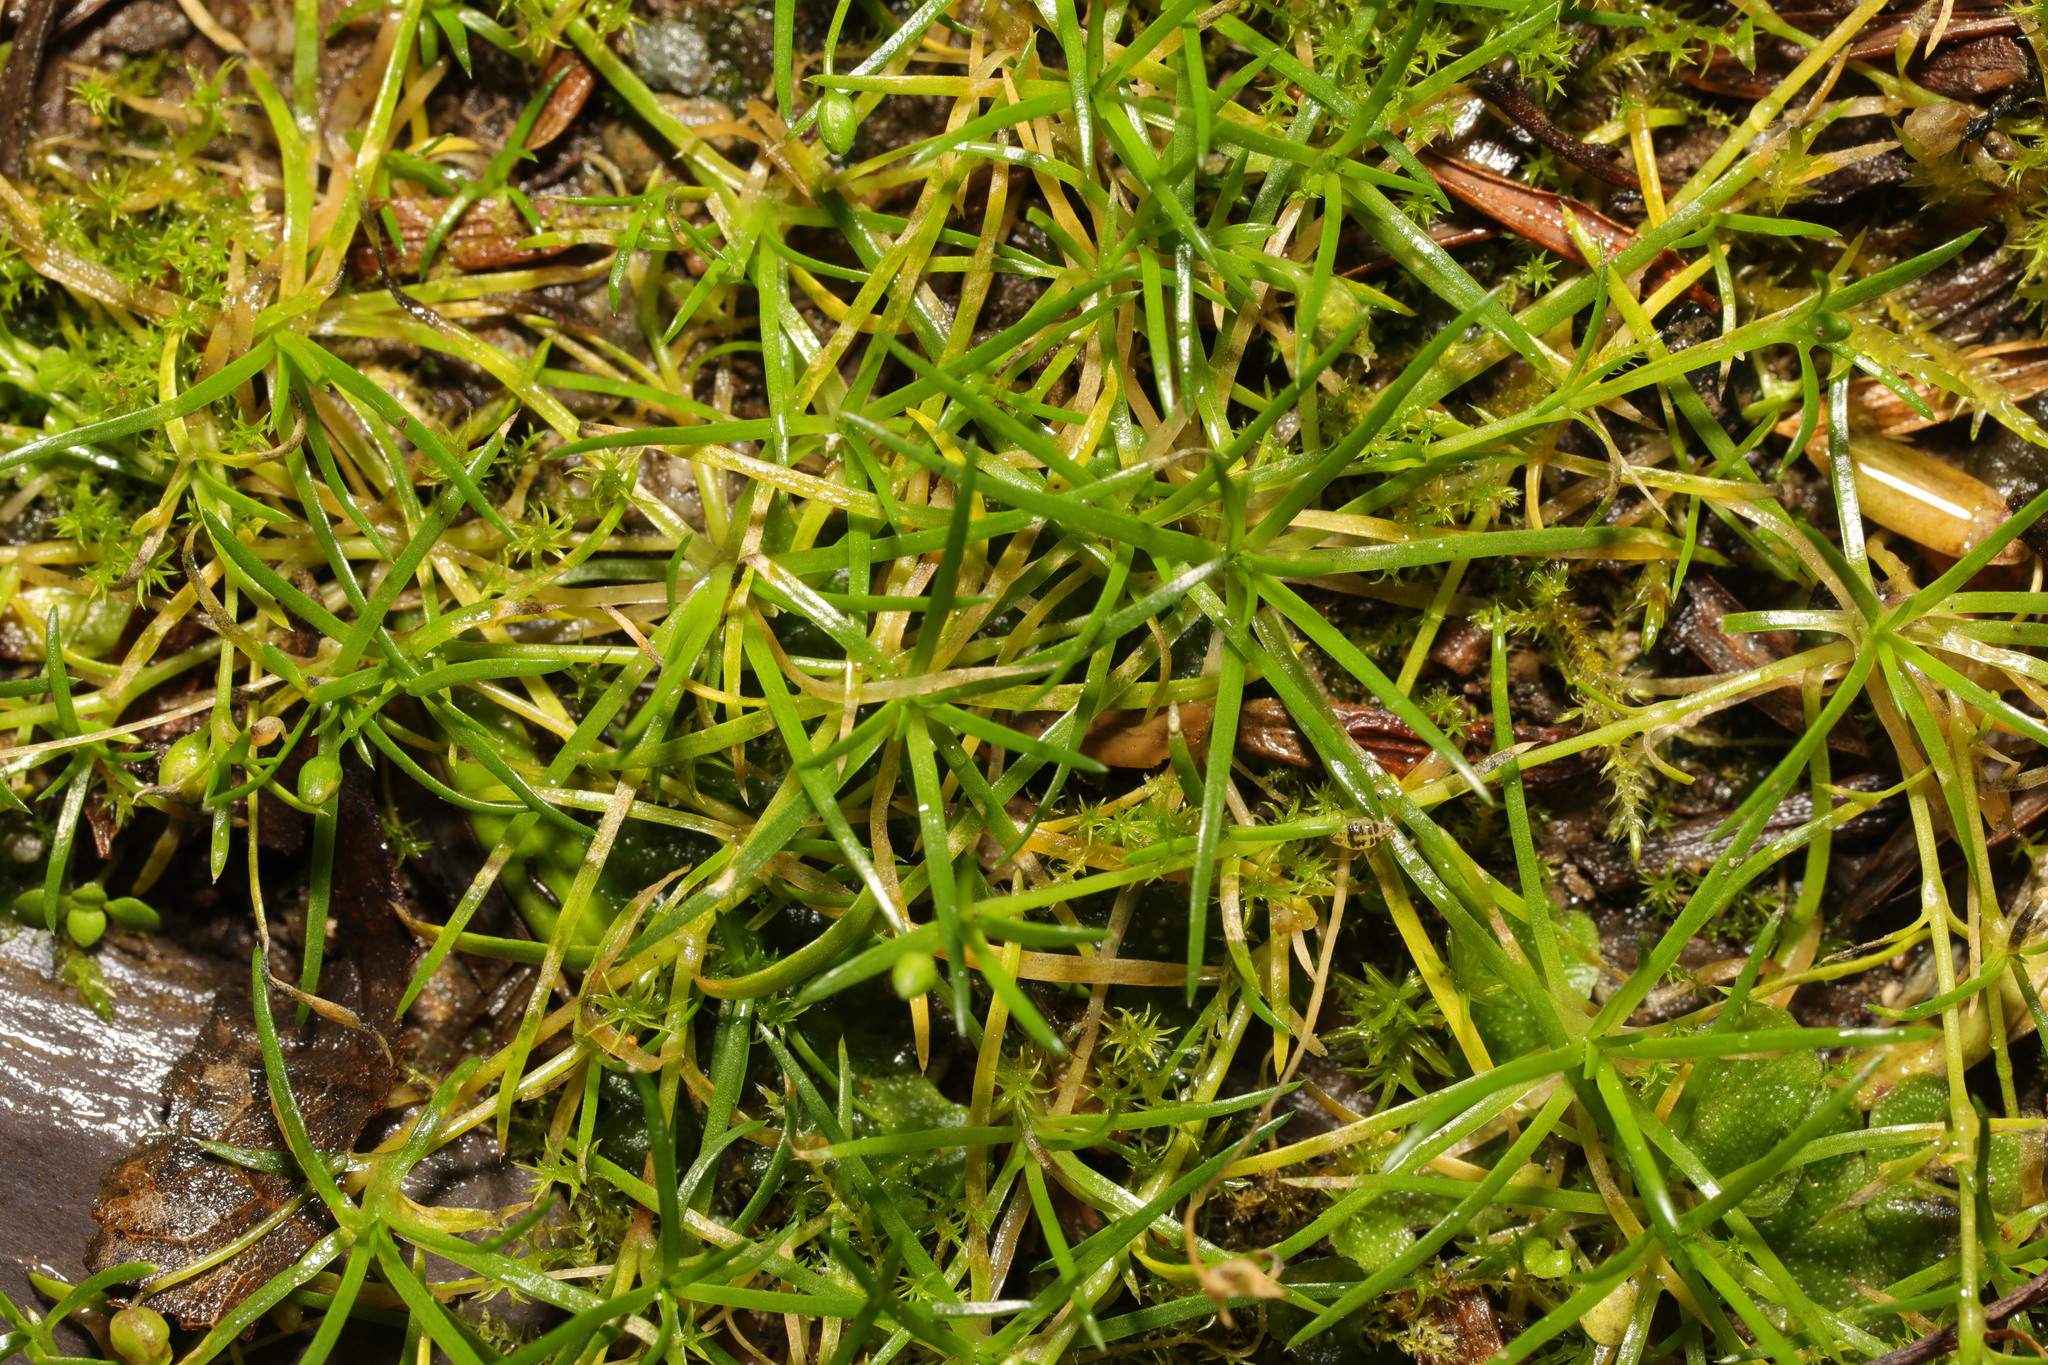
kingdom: Plantae
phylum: Tracheophyta
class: Magnoliopsida
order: Caryophyllales
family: Caryophyllaceae
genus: Sagina
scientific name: Sagina procumbens
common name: Procumbent pearlwort
